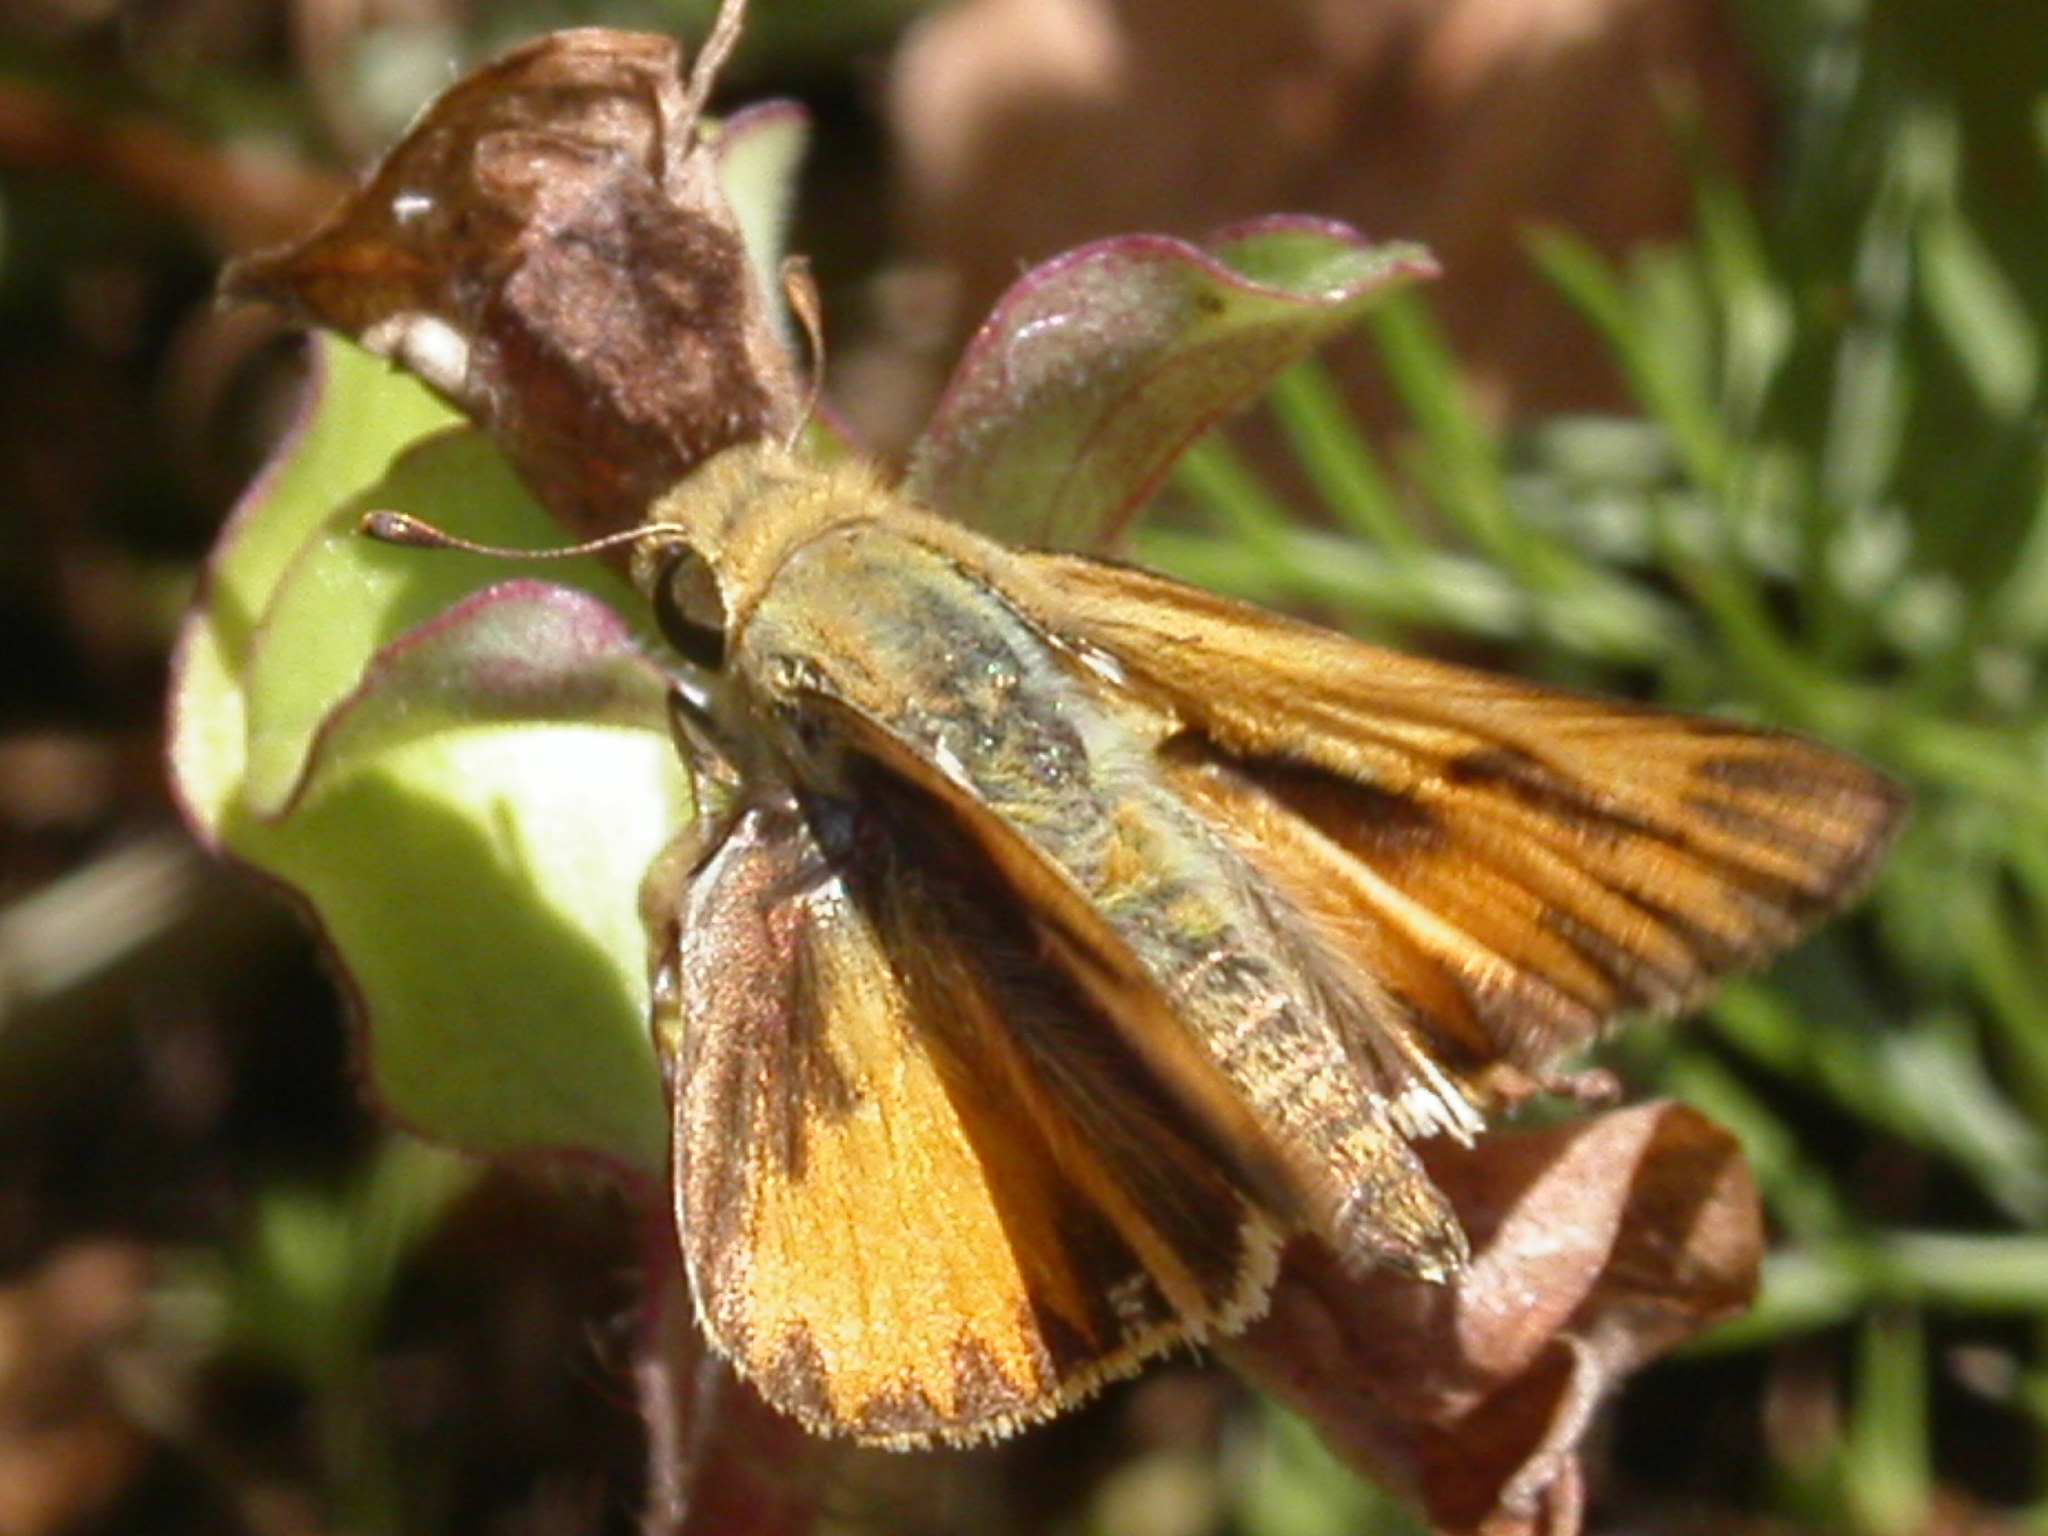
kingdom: Animalia
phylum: Arthropoda
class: Insecta
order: Lepidoptera
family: Hesperiidae
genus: Hylephila
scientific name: Hylephila phyleus
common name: Fiery skipper
